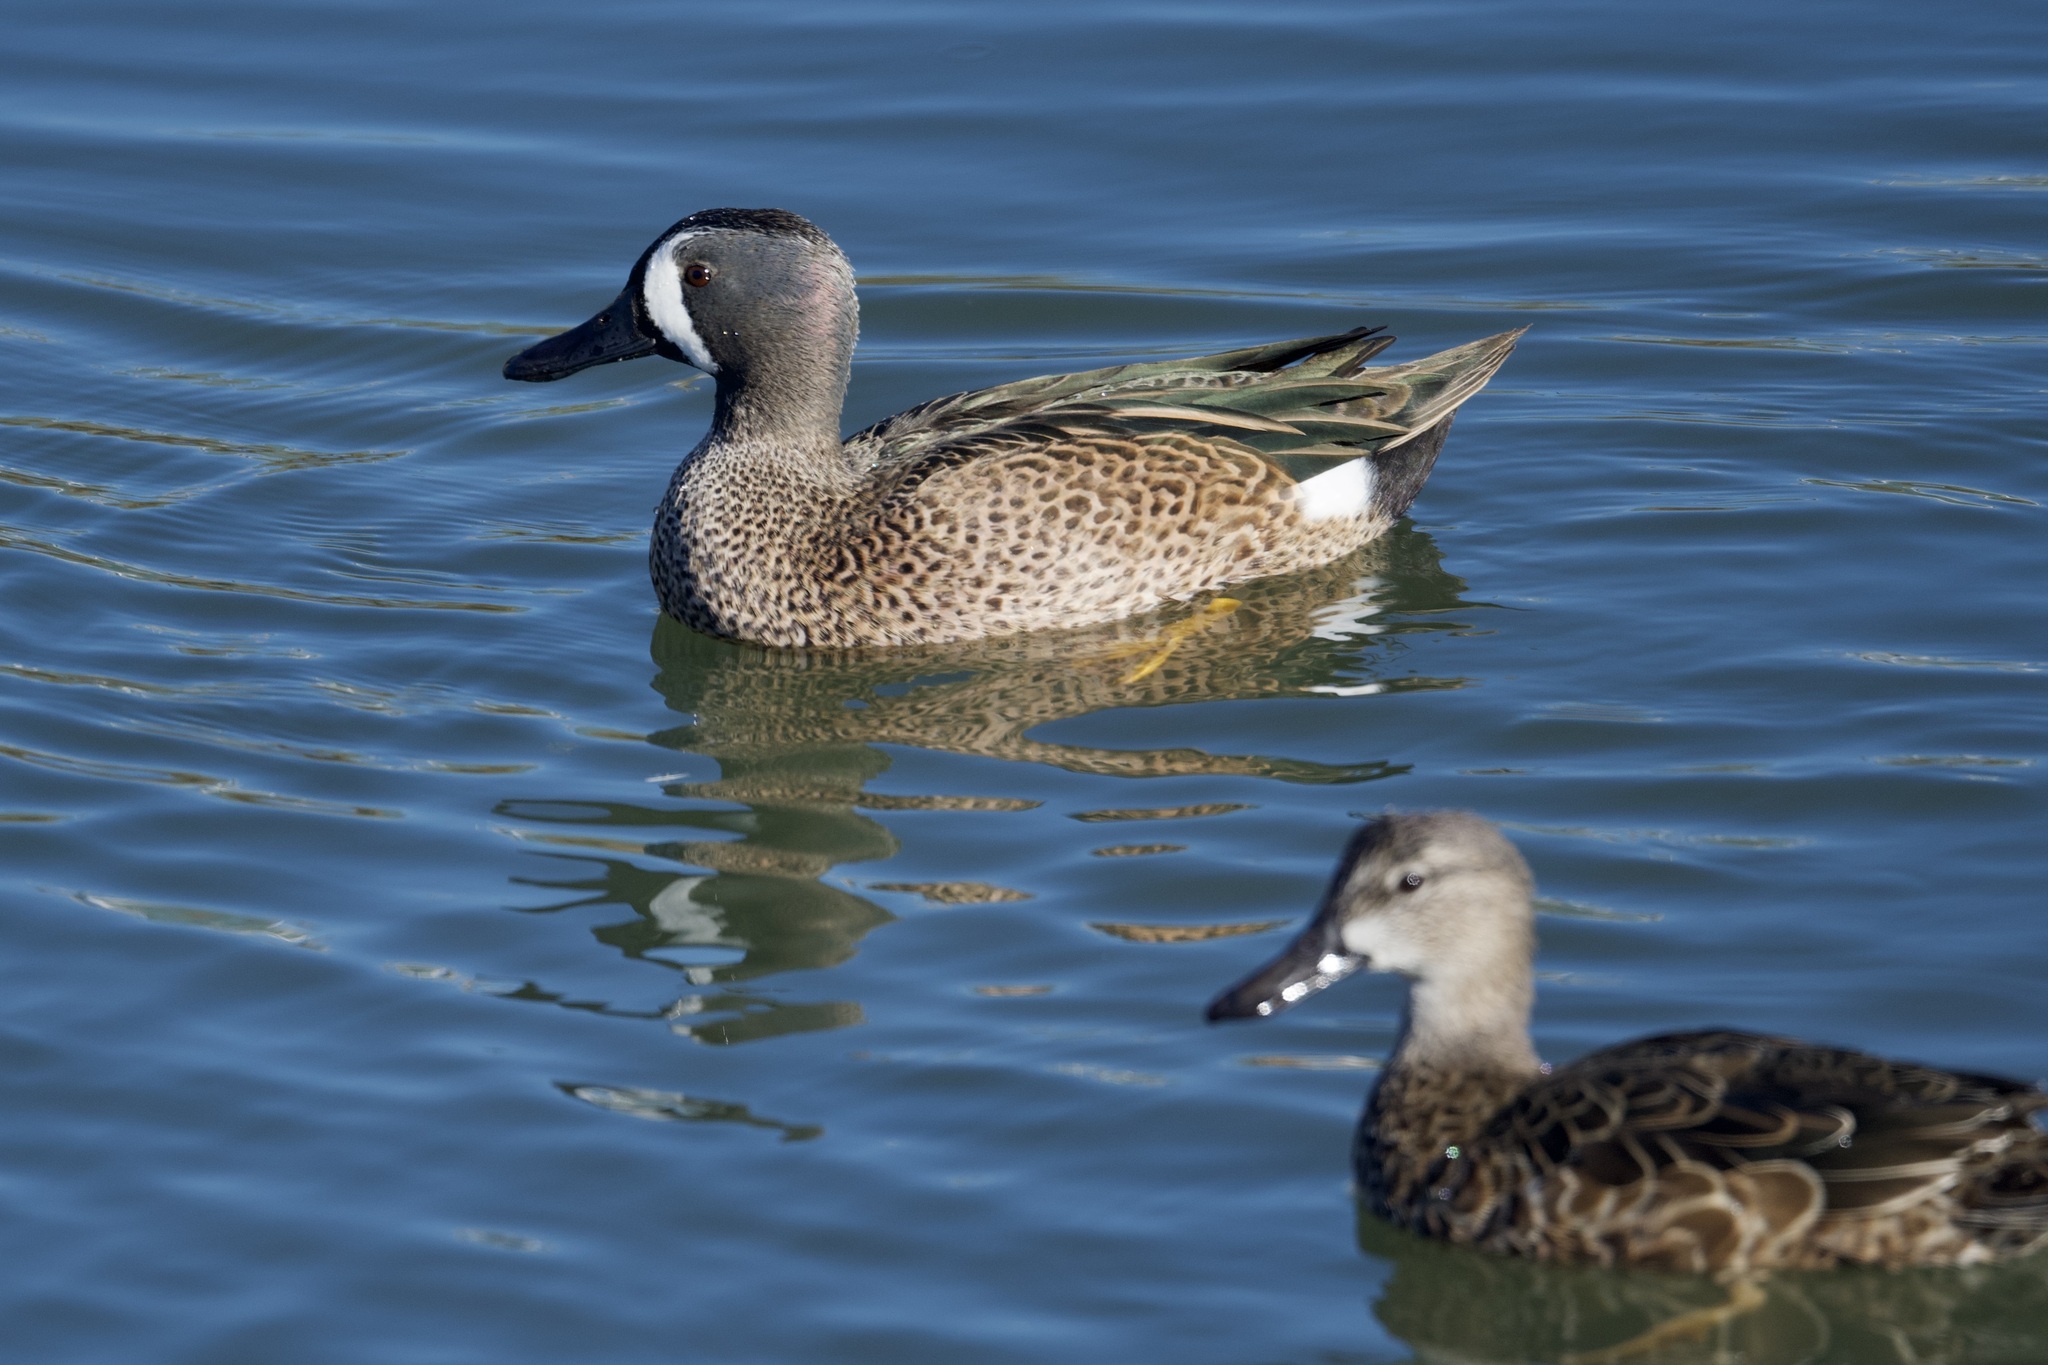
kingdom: Animalia
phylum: Chordata
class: Aves
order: Anseriformes
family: Anatidae
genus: Spatula
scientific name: Spatula discors
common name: Blue-winged teal
